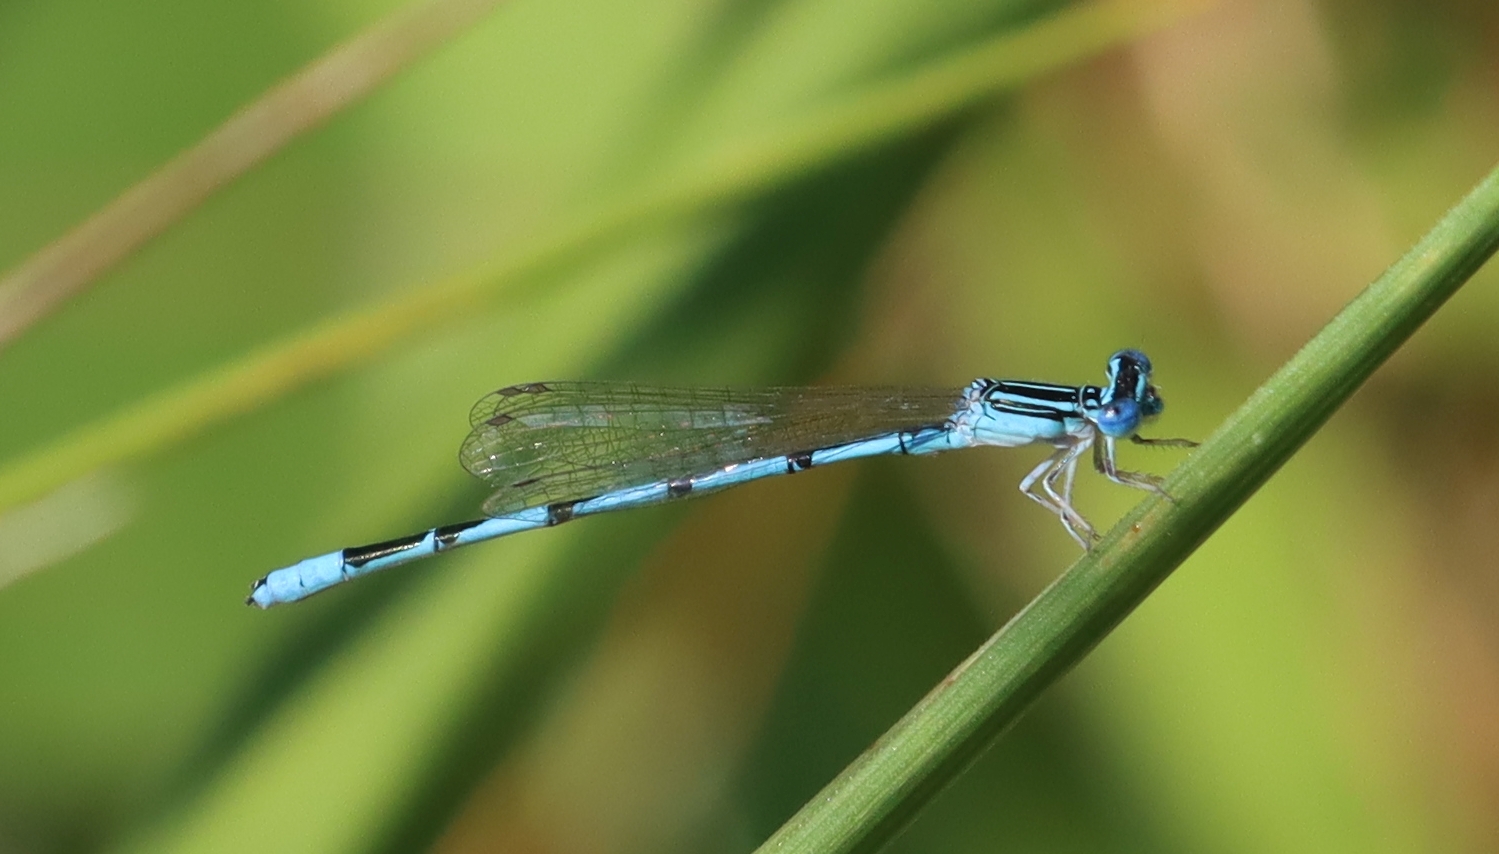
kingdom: Animalia
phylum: Arthropoda
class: Insecta
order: Odonata
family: Coenagrionidae
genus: Enallagma
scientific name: Enallagma basidens
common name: Double-striped bluet
